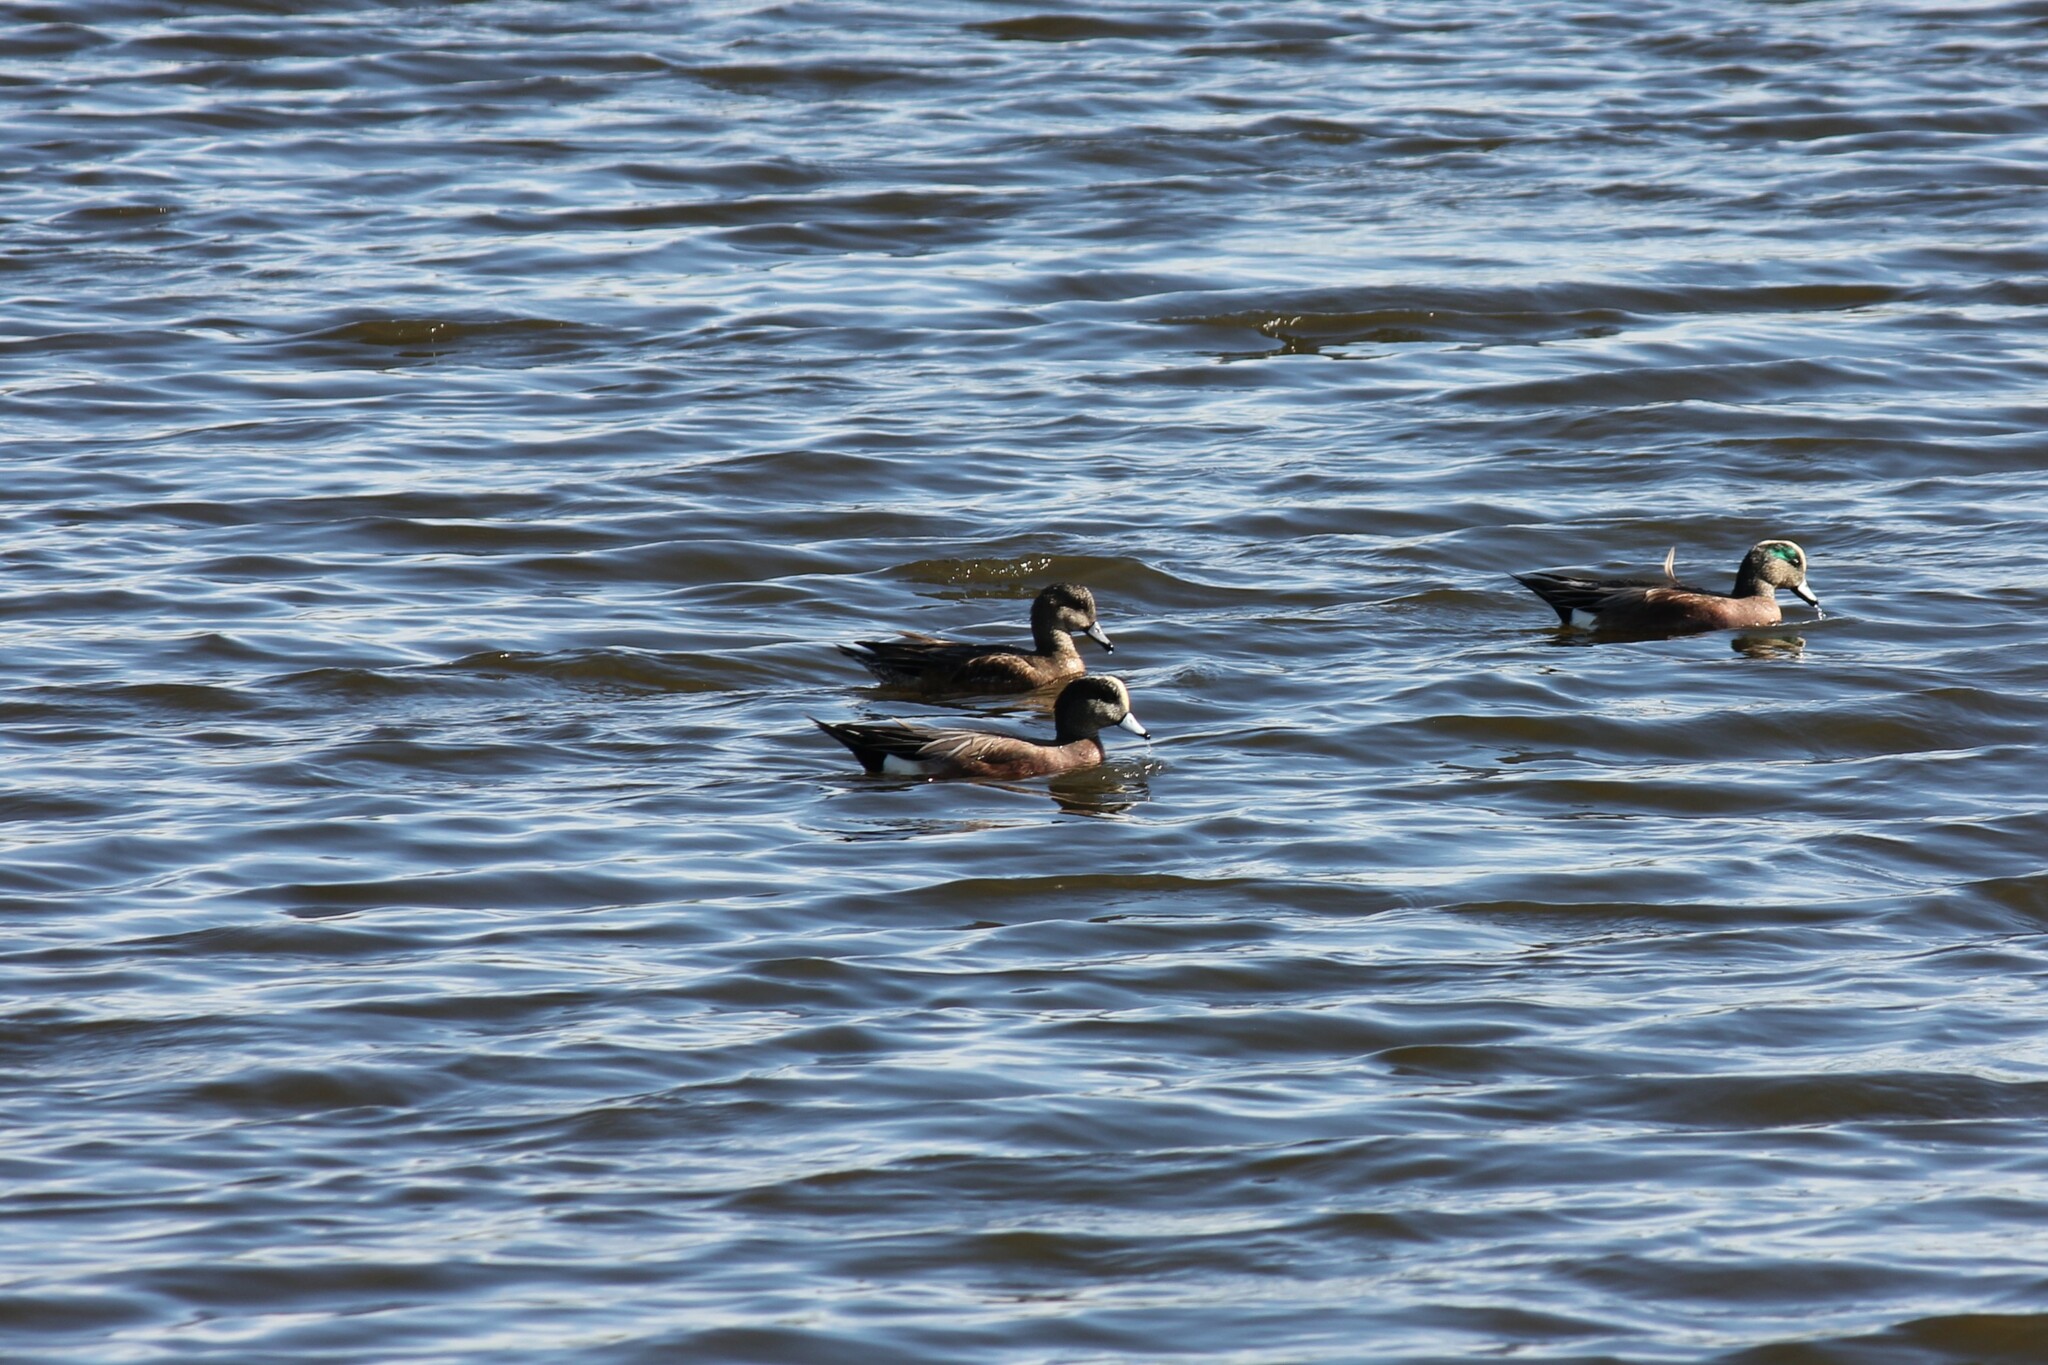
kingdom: Animalia
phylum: Chordata
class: Aves
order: Anseriformes
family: Anatidae
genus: Mareca
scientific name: Mareca americana
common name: American wigeon
